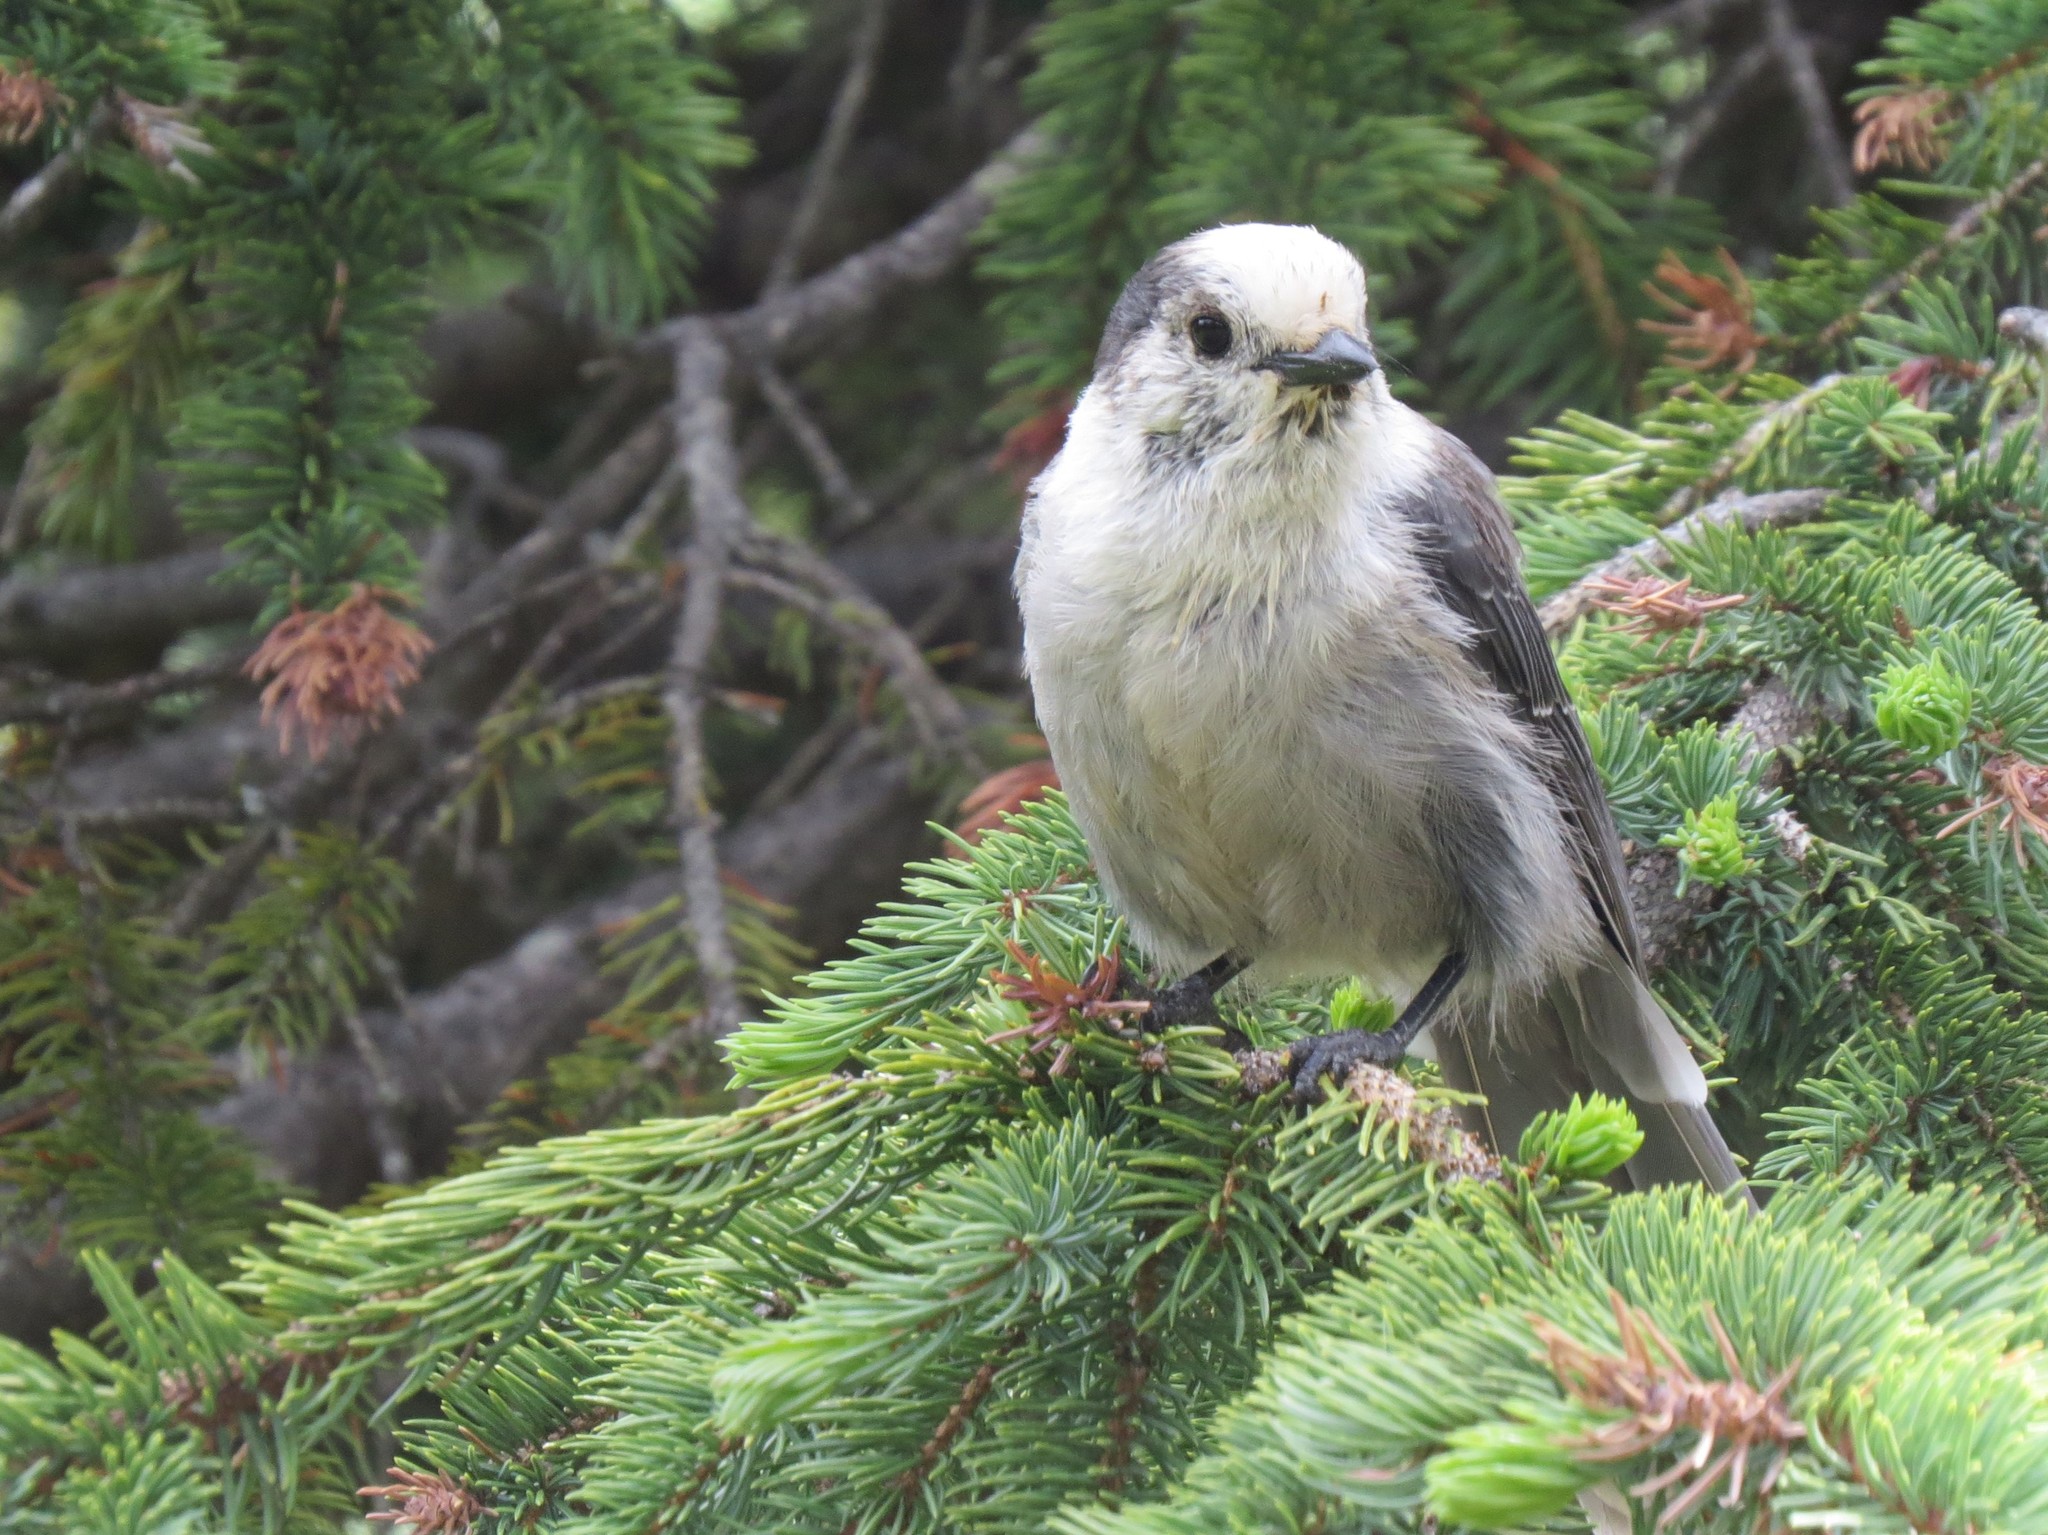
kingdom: Animalia
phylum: Chordata
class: Aves
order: Passeriformes
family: Corvidae
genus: Perisoreus
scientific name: Perisoreus canadensis
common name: Gray jay
